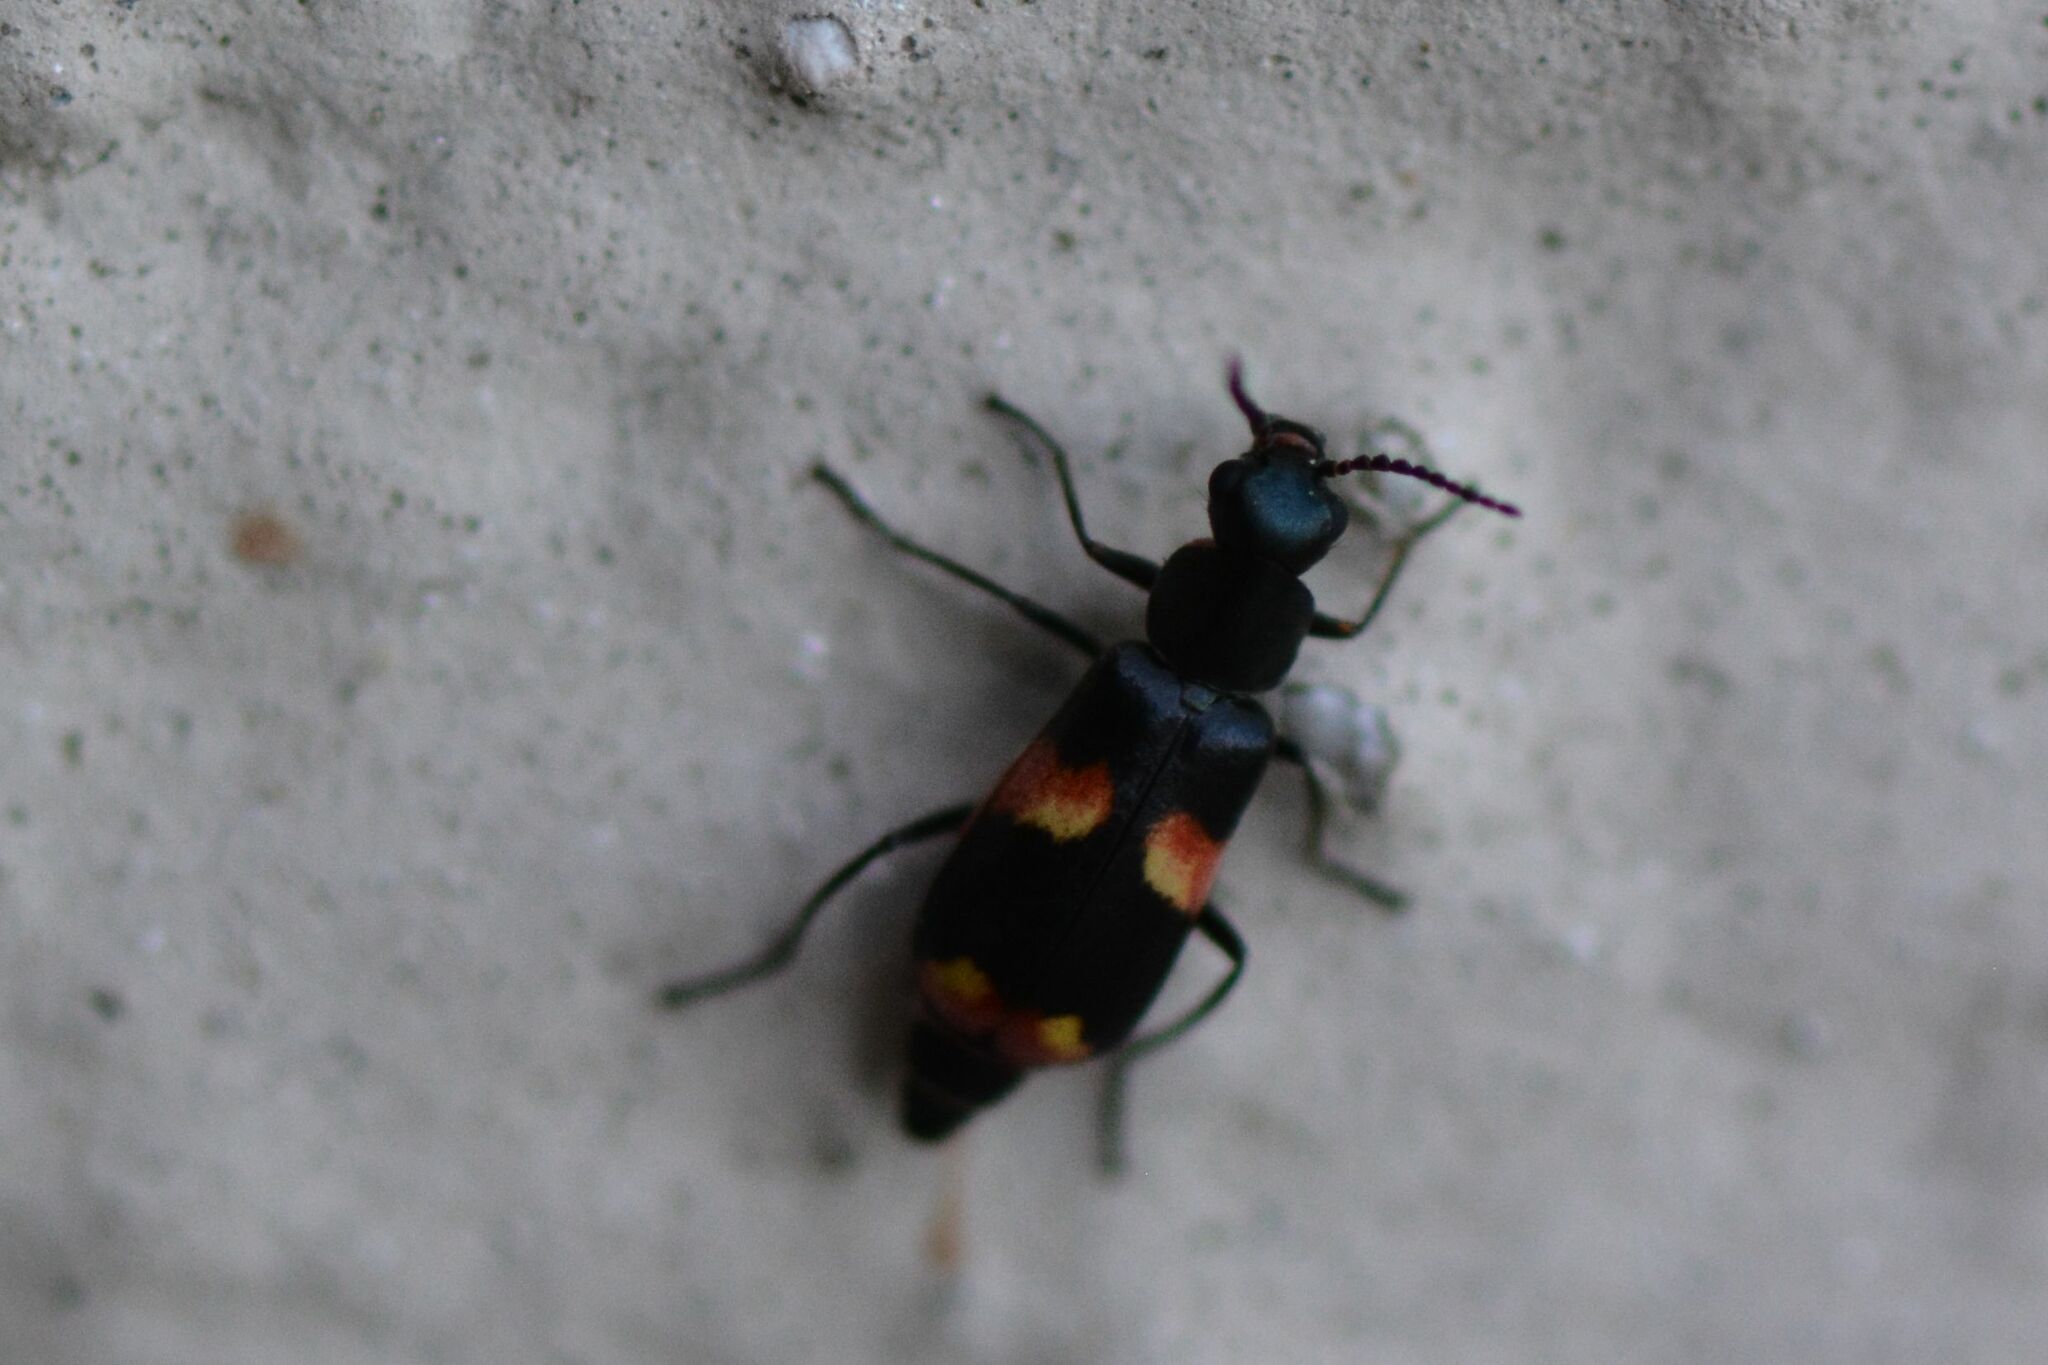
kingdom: Animalia
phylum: Arthropoda
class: Insecta
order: Coleoptera
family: Melyridae
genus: Anthocomus
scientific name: Anthocomus fasciatus
